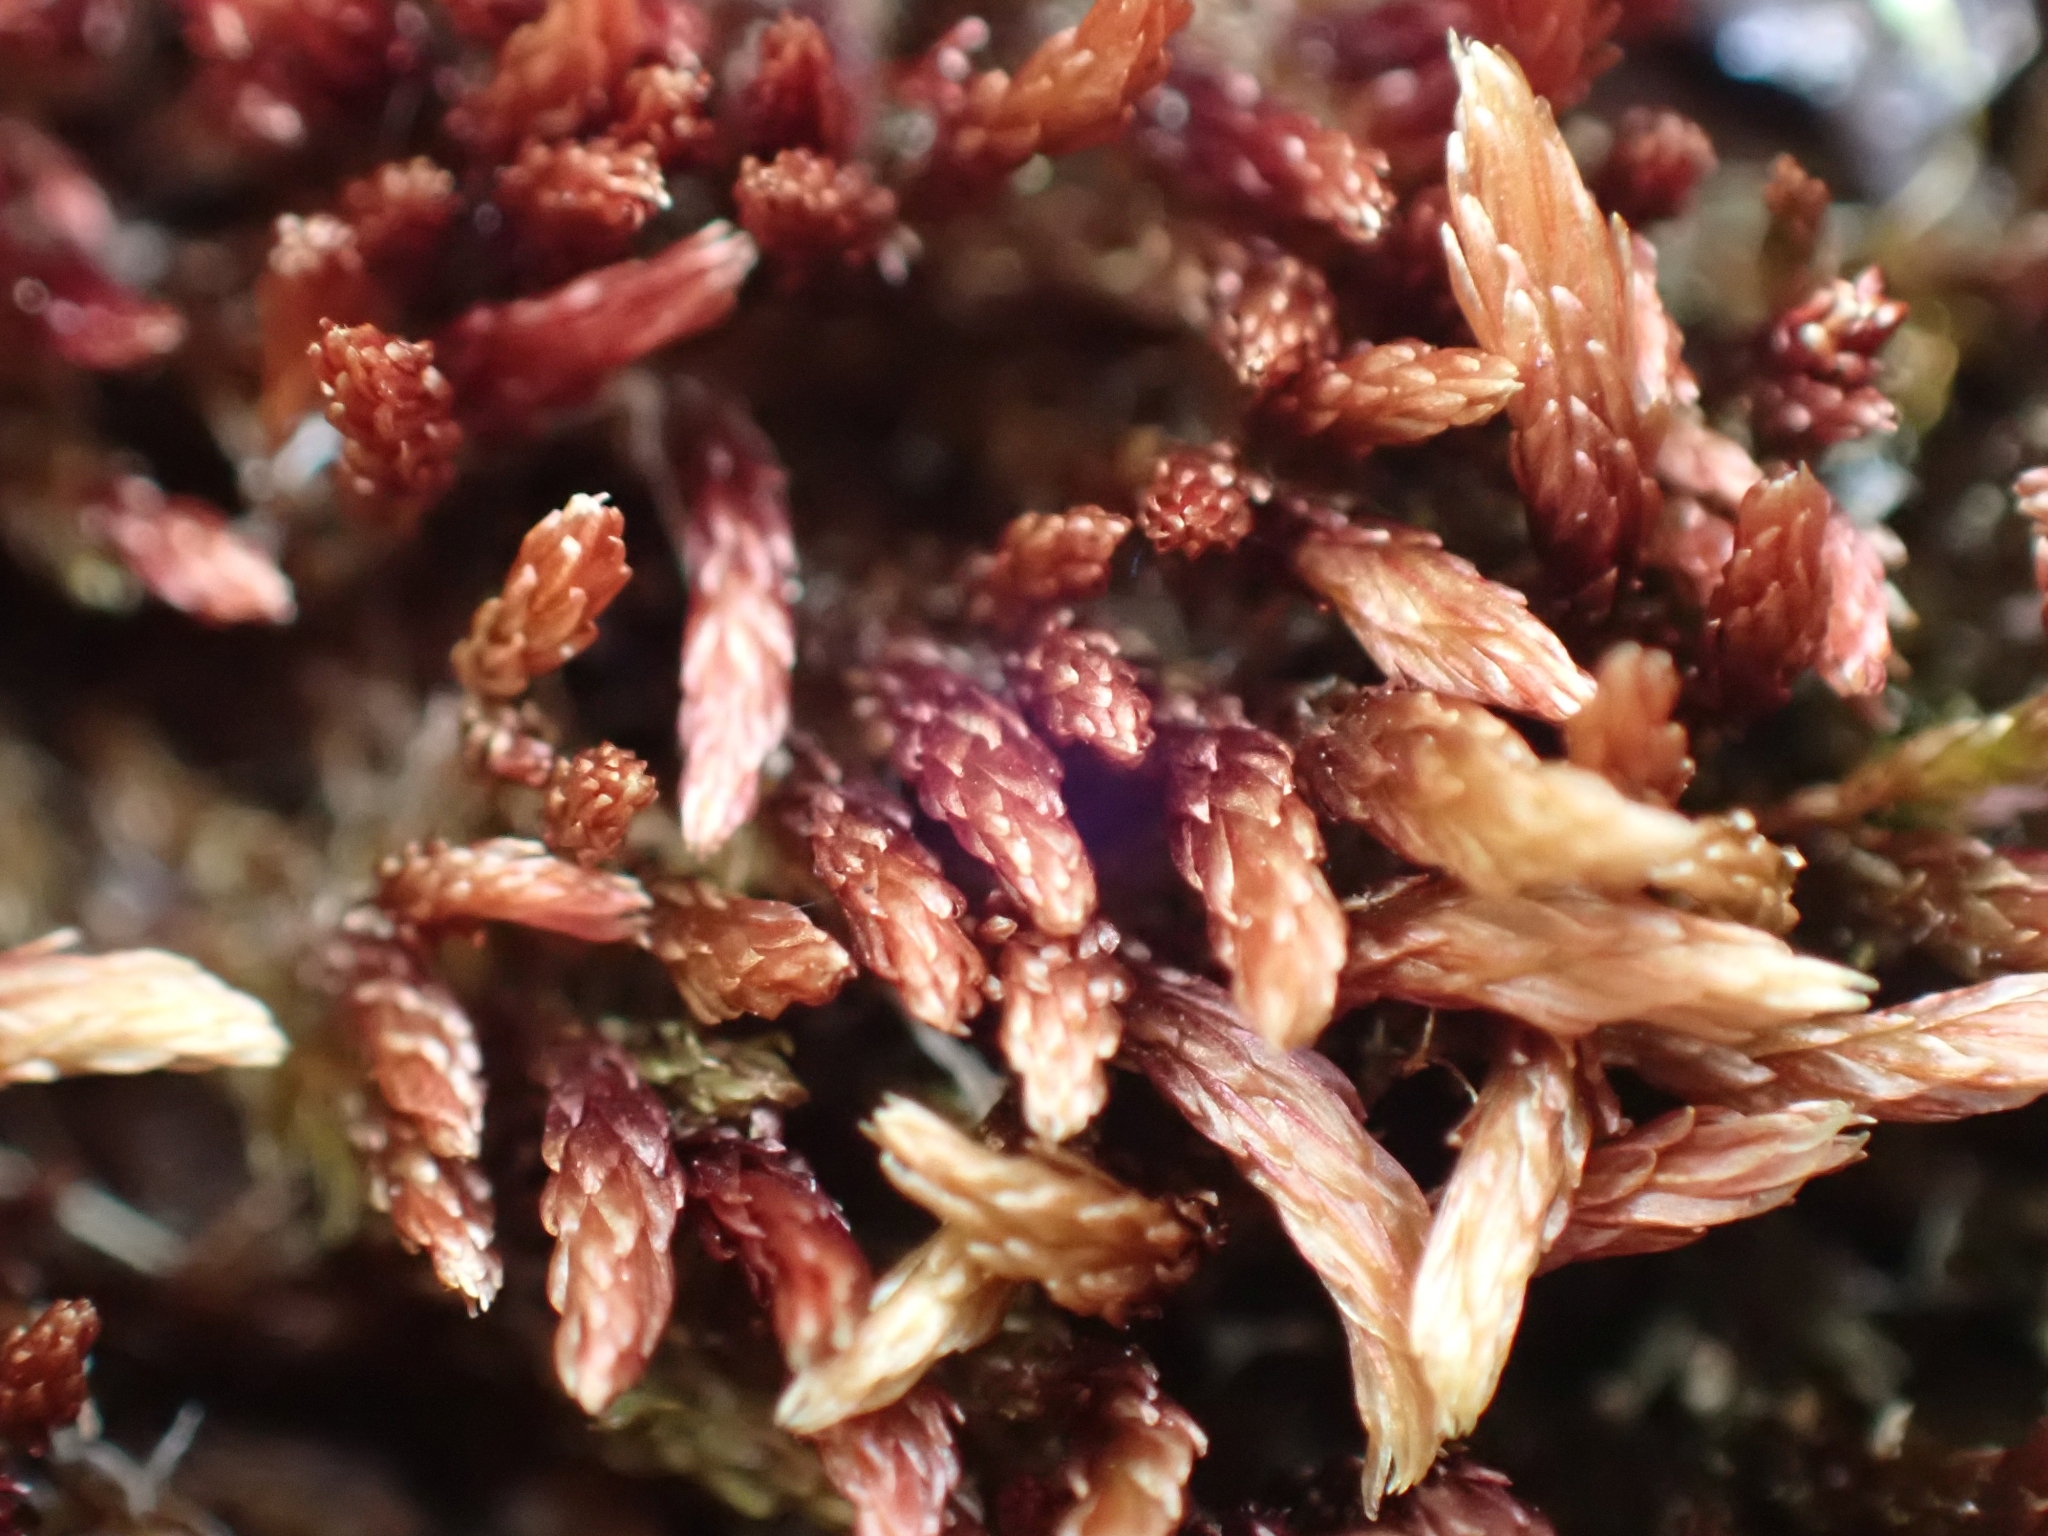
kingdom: Plantae
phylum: Bryophyta
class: Bryopsida
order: Bryales
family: Bryaceae
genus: Imbribryum
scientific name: Imbribryum miniatum
